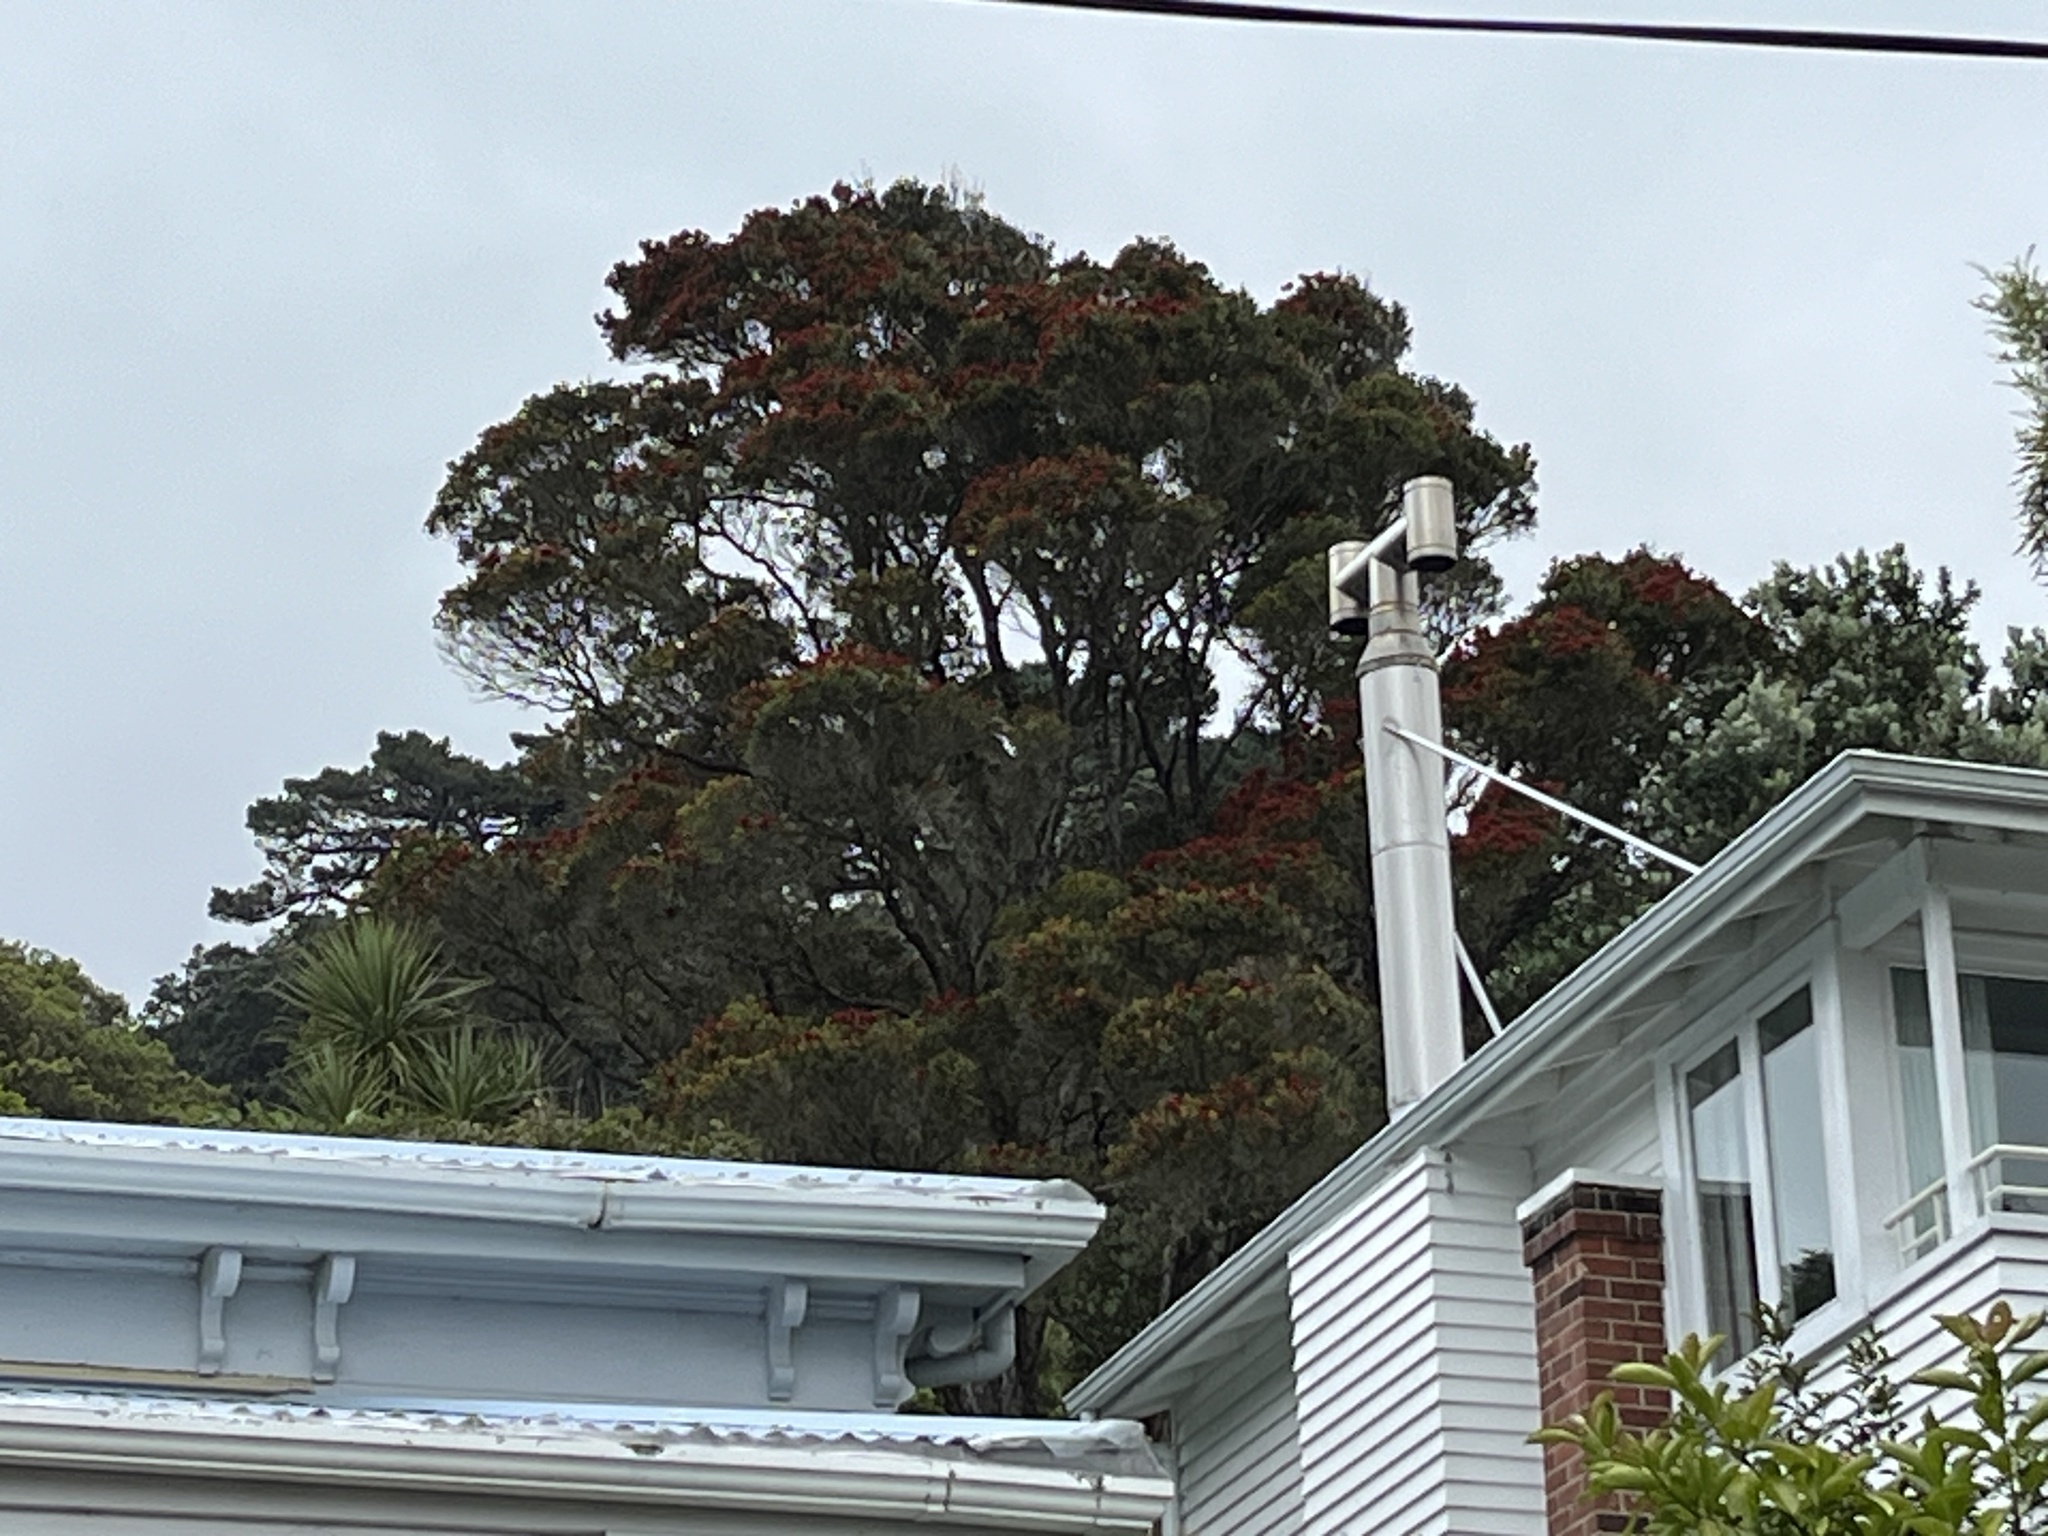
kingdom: Plantae
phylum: Tracheophyta
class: Magnoliopsida
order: Myrtales
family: Myrtaceae
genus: Metrosideros
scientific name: Metrosideros robusta
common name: Northern rata
